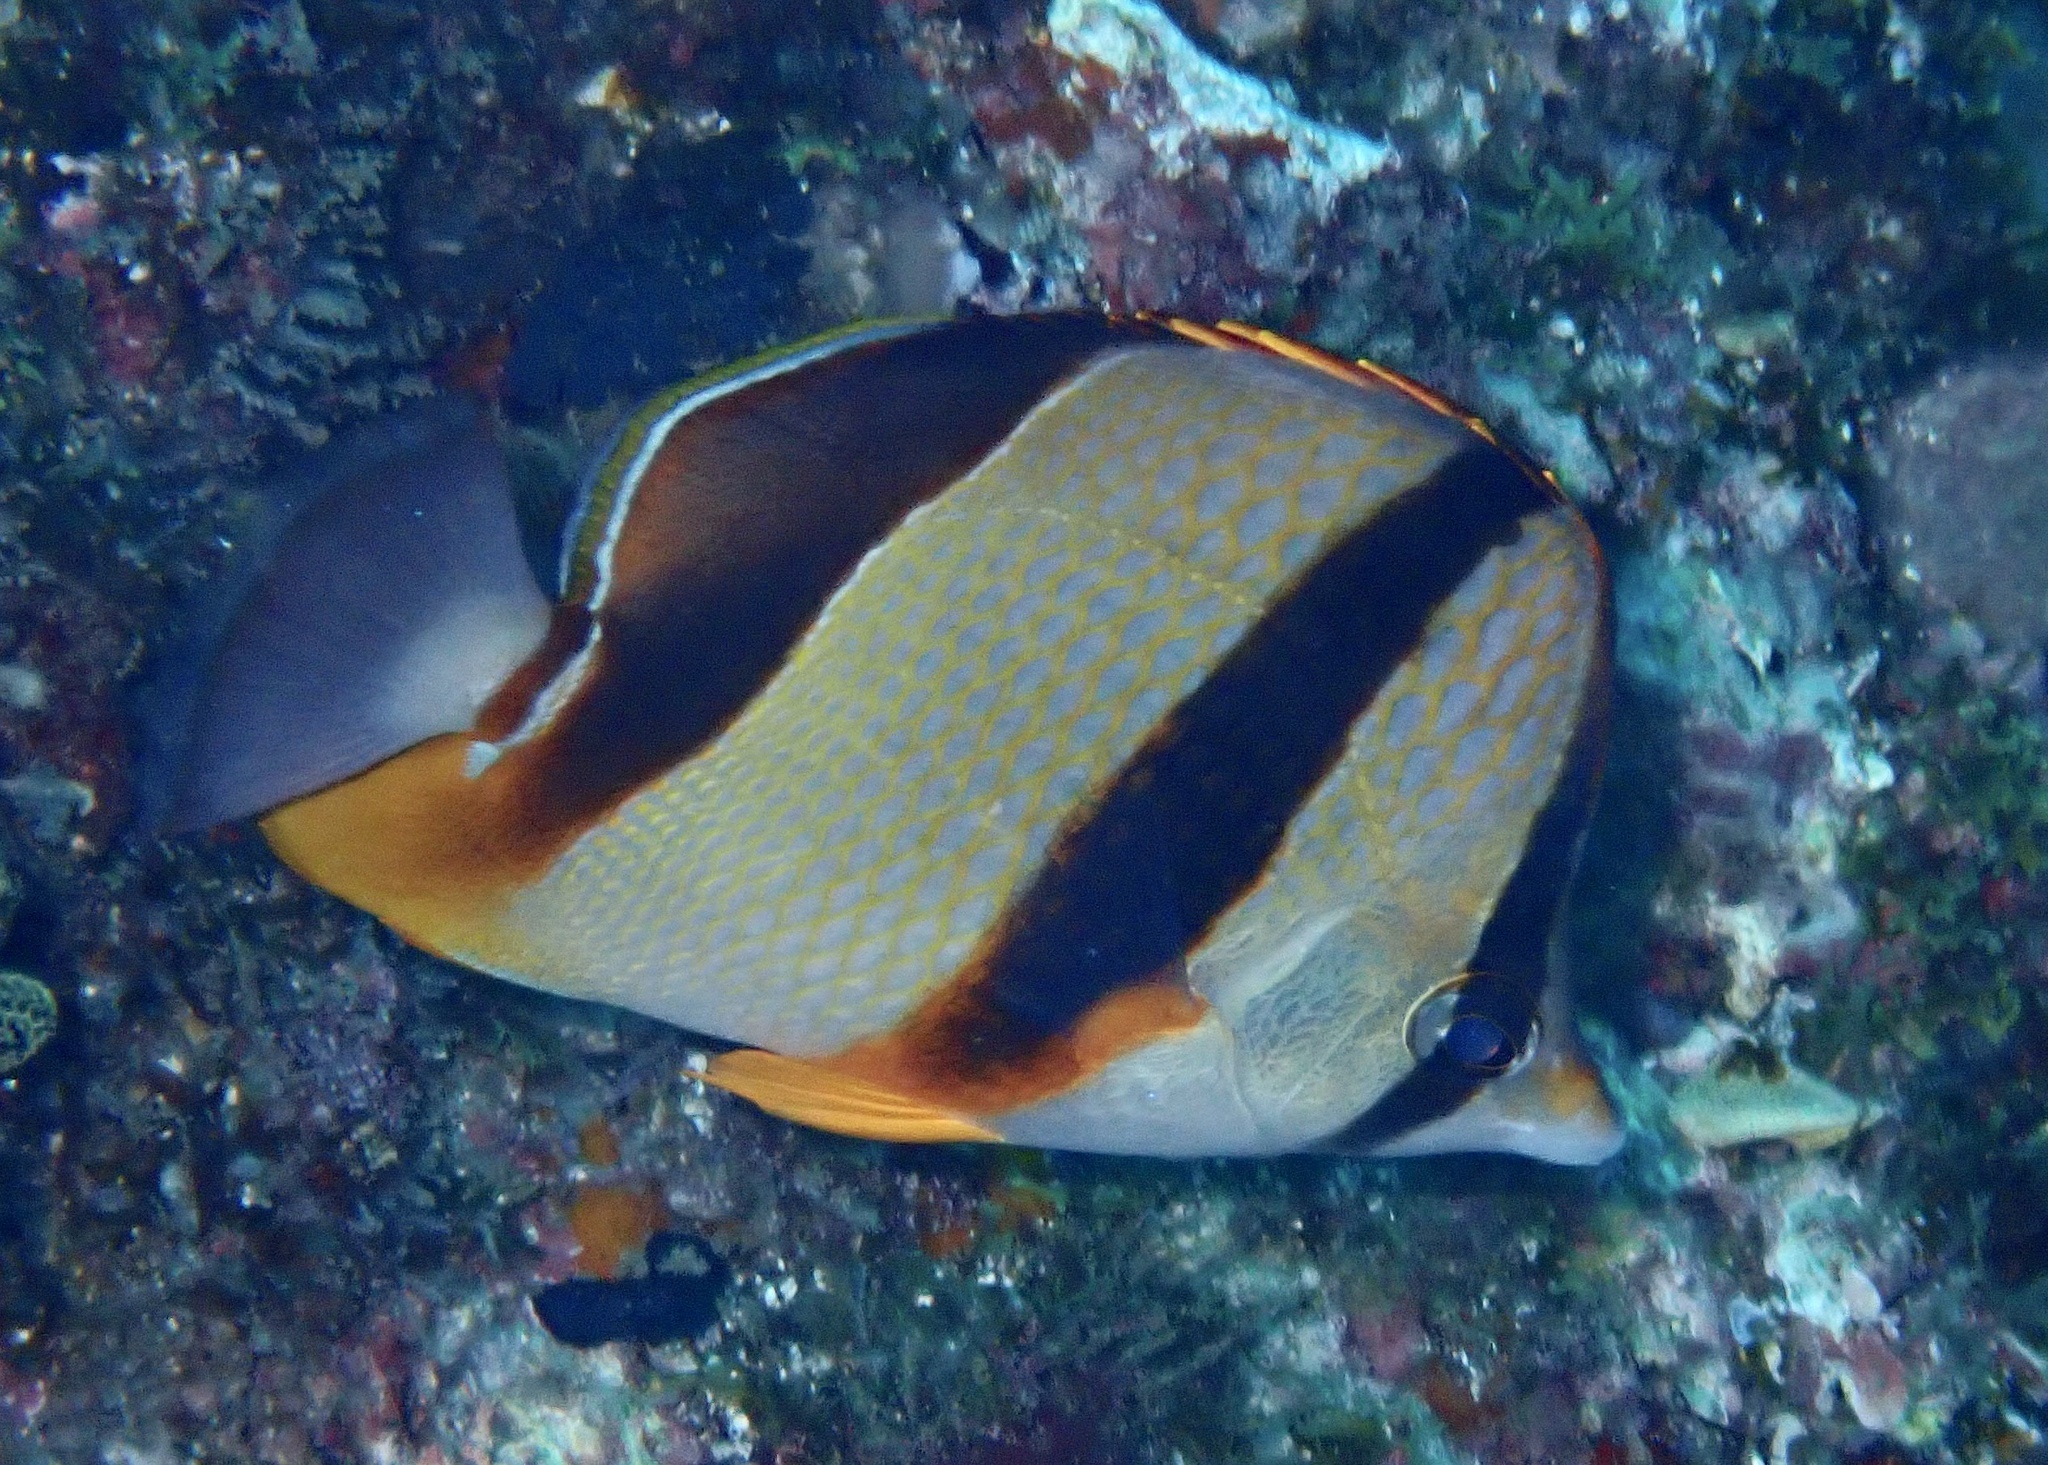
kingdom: Animalia
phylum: Chordata
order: Perciformes
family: Chaetodontidae
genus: Chaetodon
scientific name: Chaetodon robustus
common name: Three-banded butterflyfish
